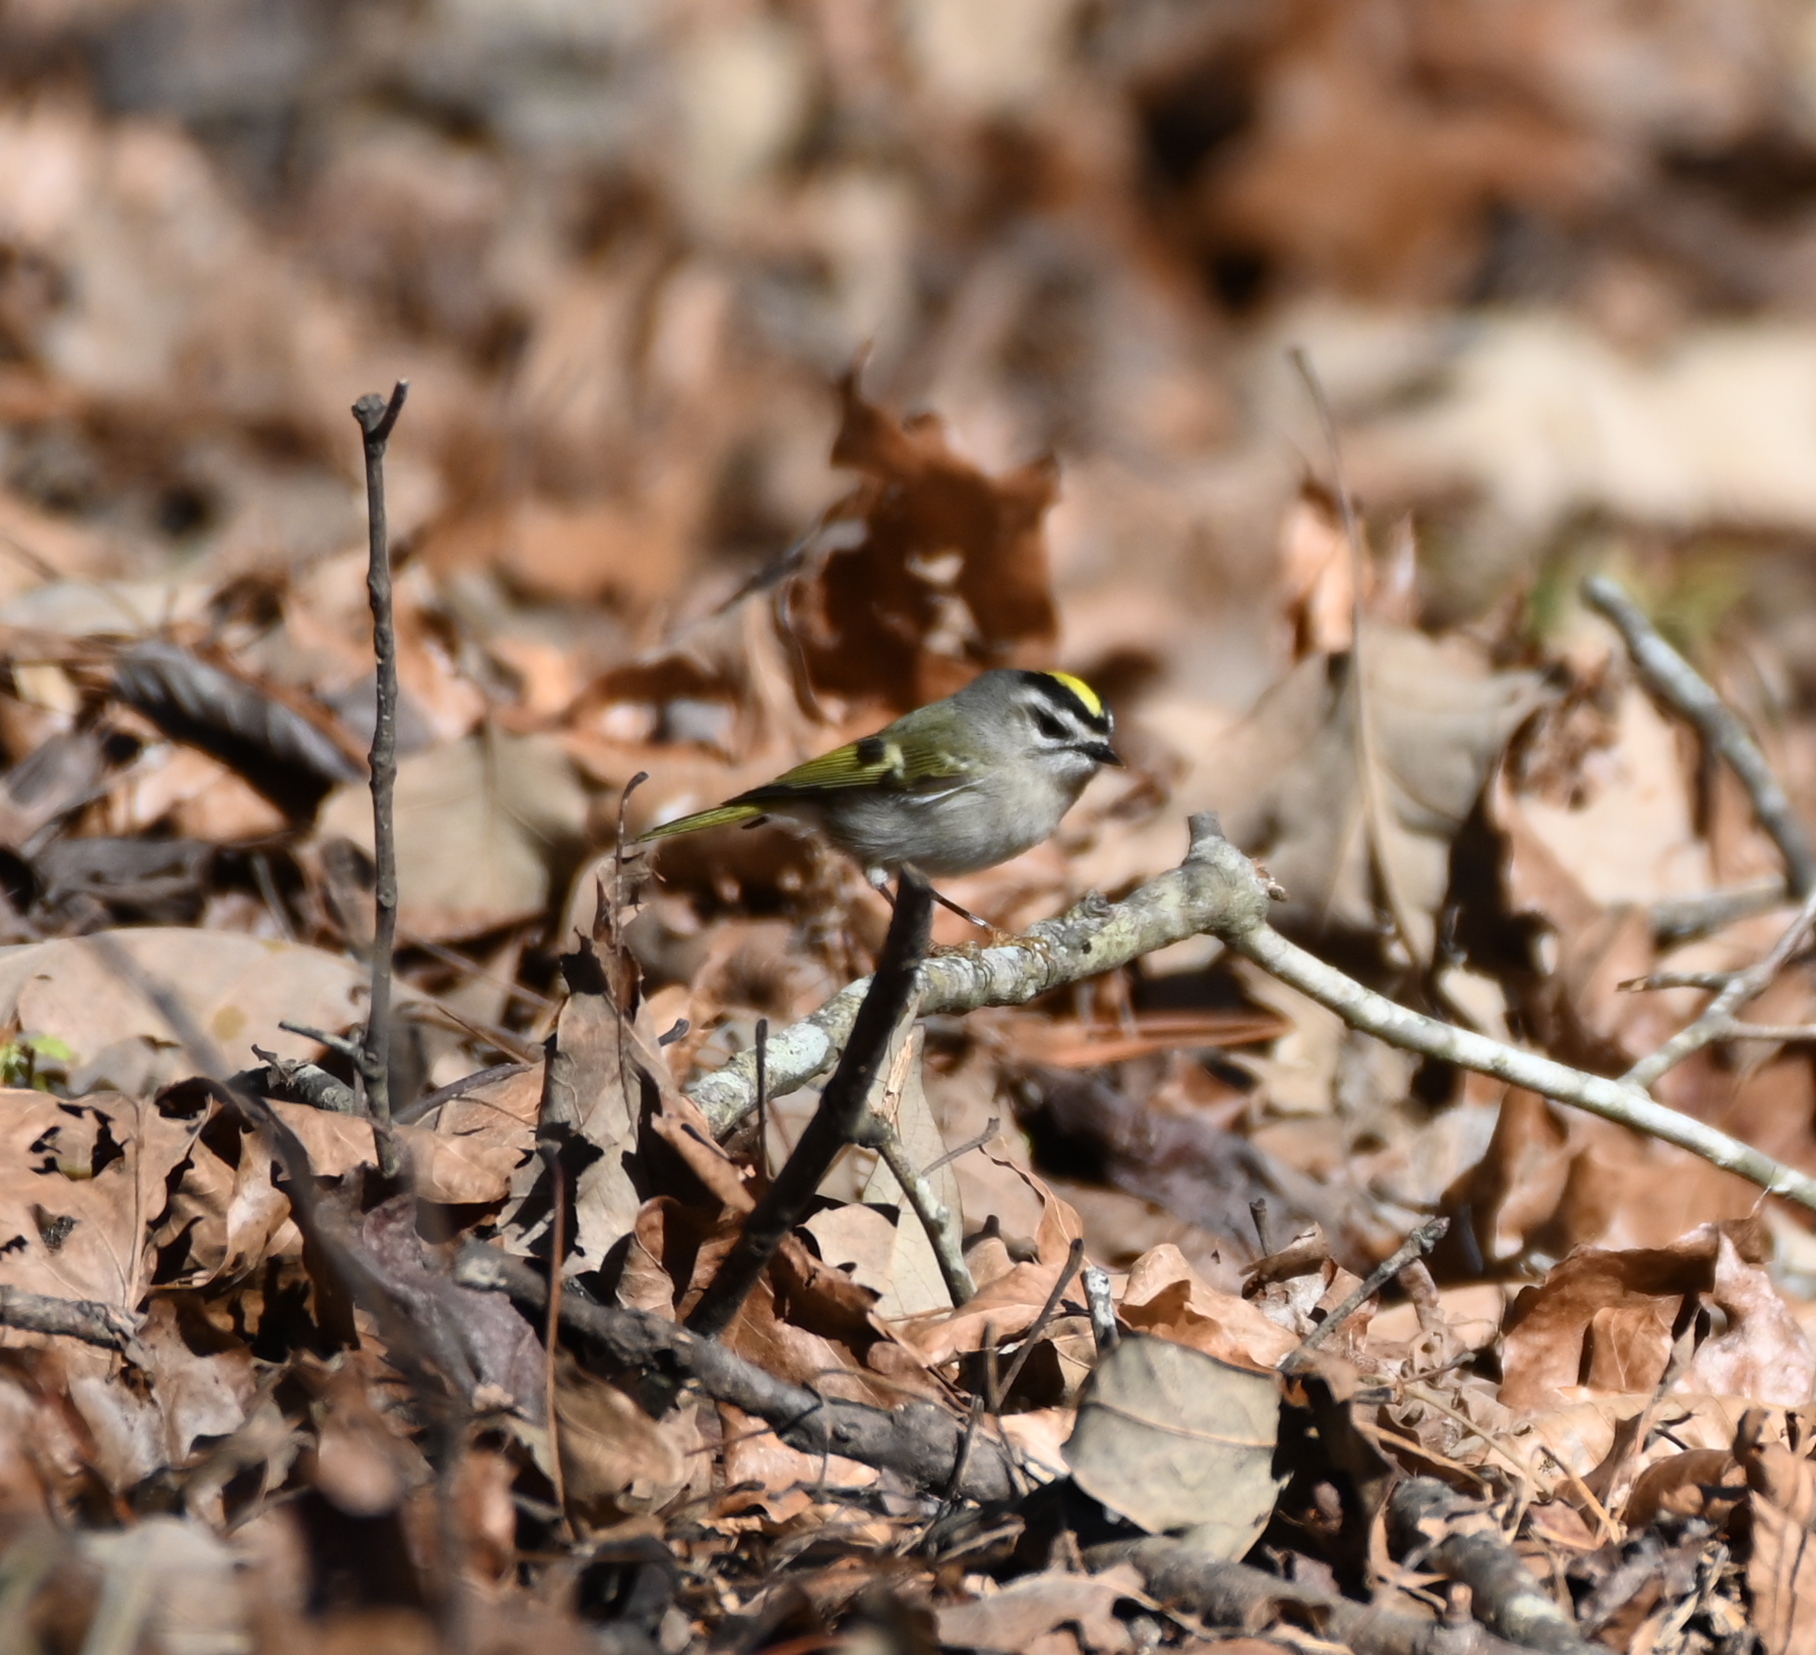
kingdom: Animalia
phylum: Chordata
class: Aves
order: Passeriformes
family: Regulidae
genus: Regulus
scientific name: Regulus satrapa
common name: Golden-crowned kinglet
